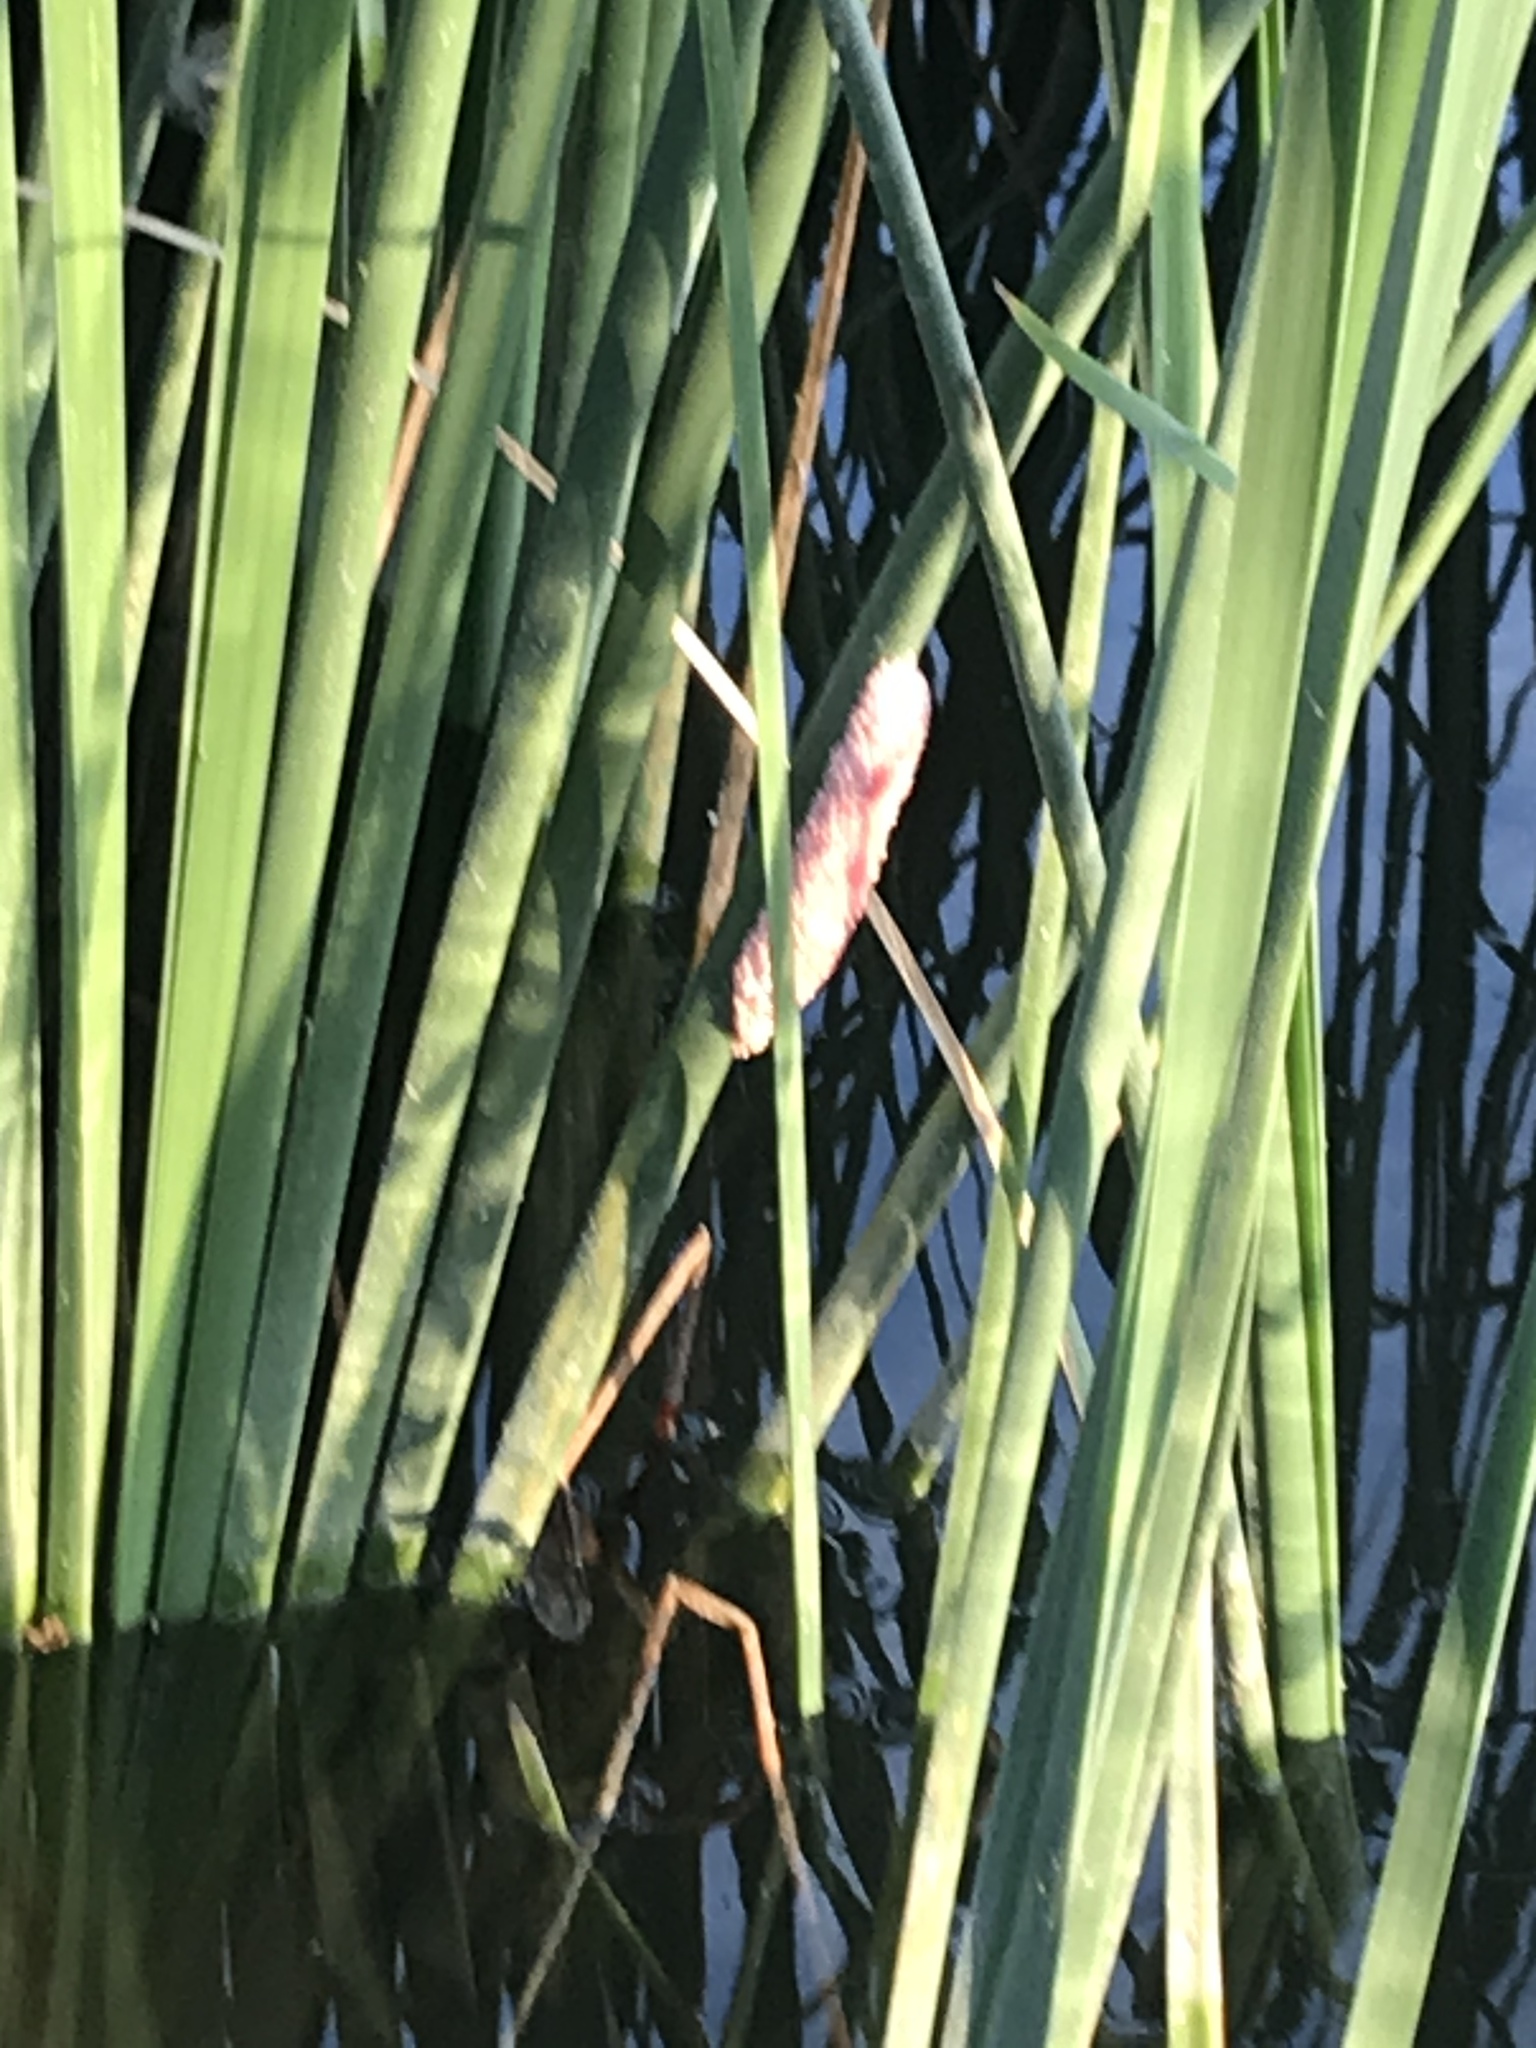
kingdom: Animalia
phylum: Mollusca
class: Gastropoda
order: Architaenioglossa
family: Ampullariidae
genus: Pomacea
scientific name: Pomacea maculata
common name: Giant applesnail
